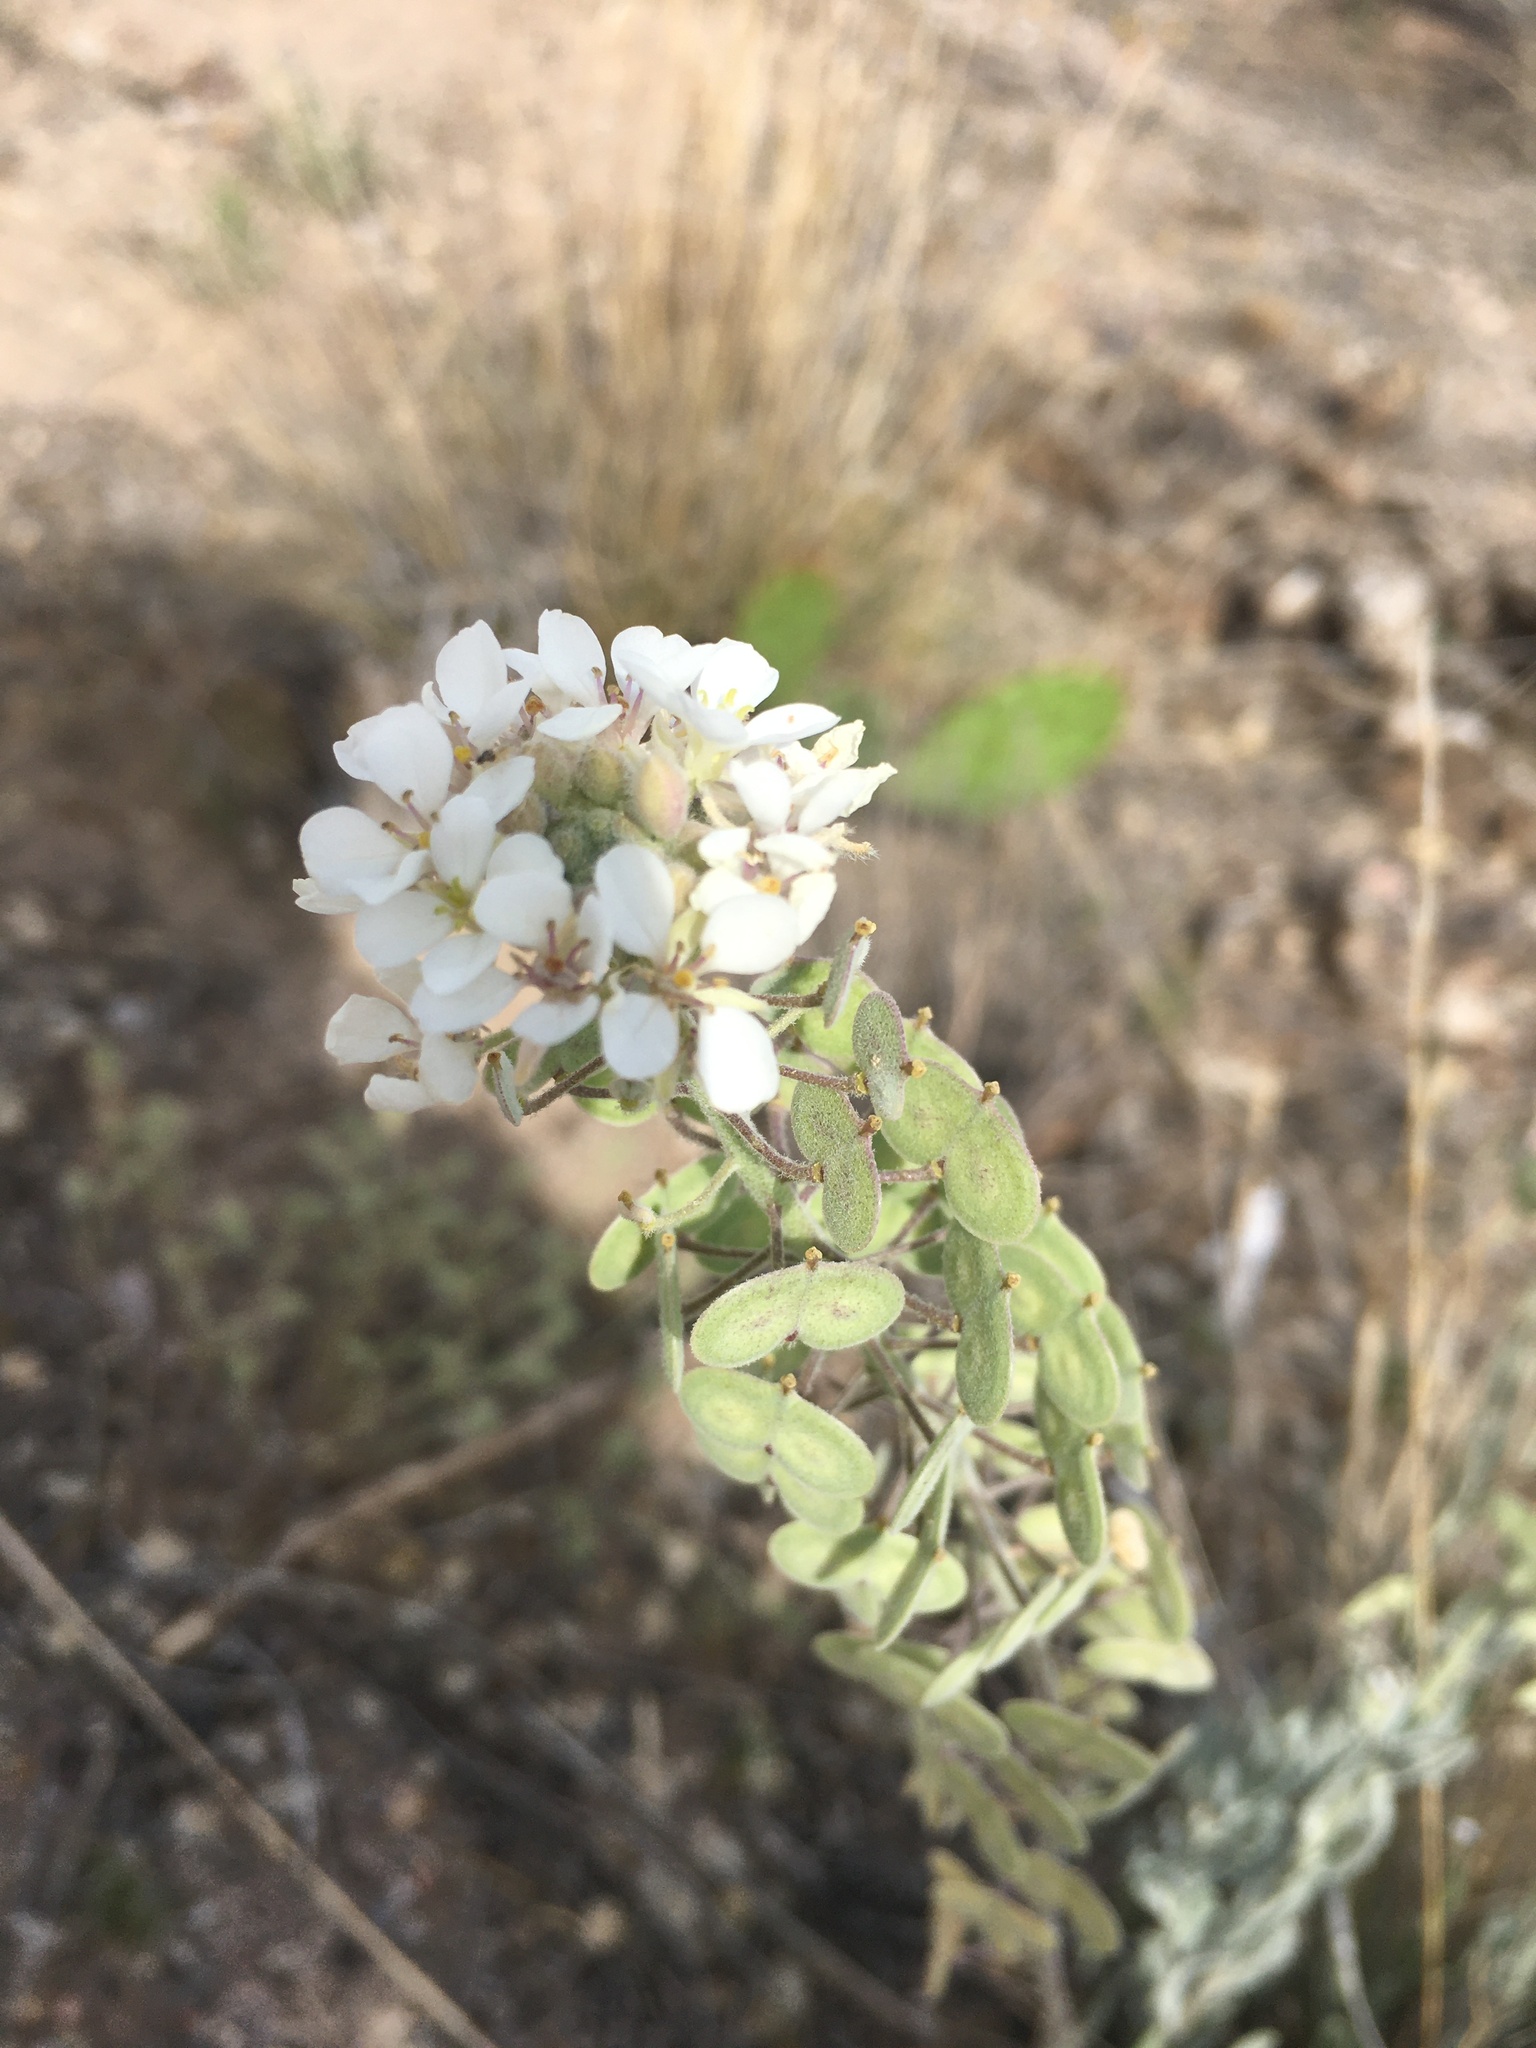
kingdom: Plantae
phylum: Tracheophyta
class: Magnoliopsida
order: Brassicales
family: Brassicaceae
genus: Dimorphocarpa
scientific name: Dimorphocarpa wislizenii
